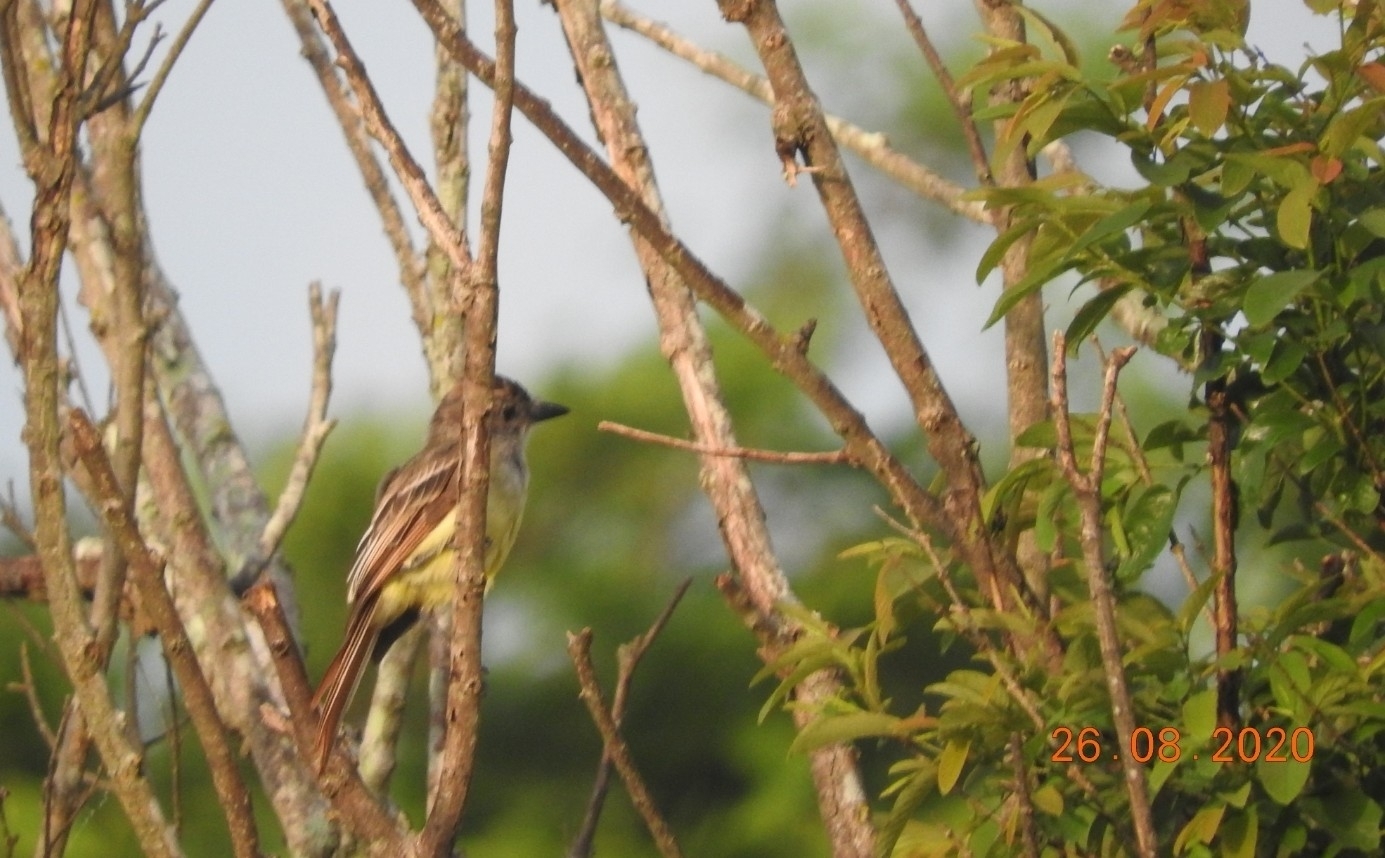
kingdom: Animalia
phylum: Chordata
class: Aves
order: Passeriformes
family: Tyrannidae
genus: Myiarchus
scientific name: Myiarchus tyrannulus
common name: Brown-crested flycatcher
